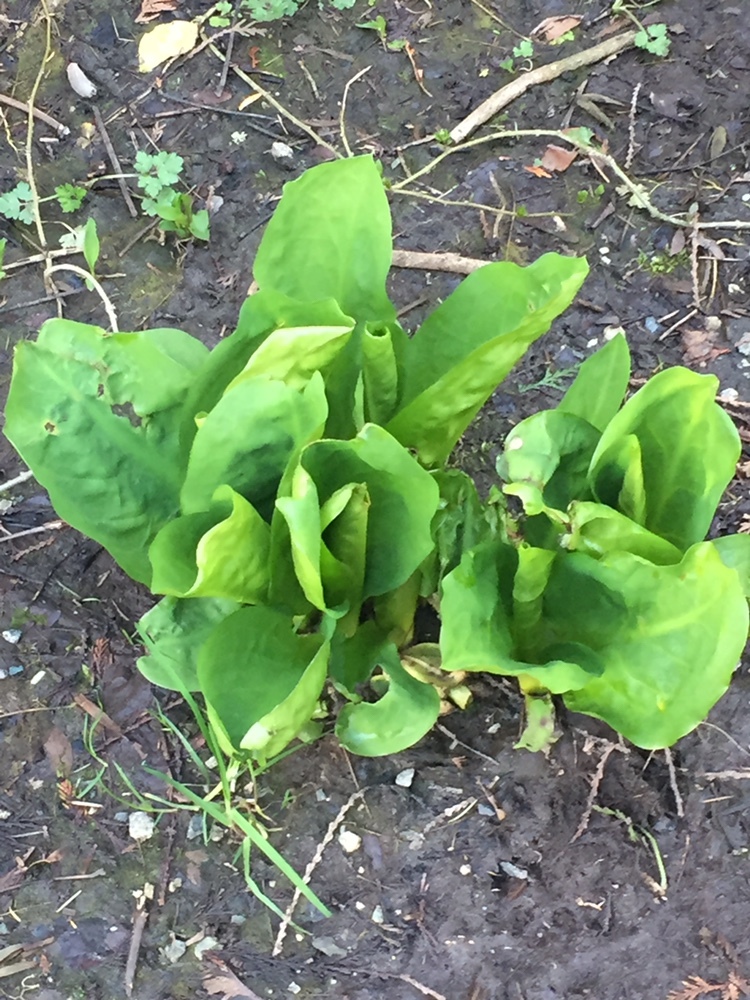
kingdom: Plantae
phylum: Tracheophyta
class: Liliopsida
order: Alismatales
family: Araceae
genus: Lysichiton
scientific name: Lysichiton americanus
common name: American skunk cabbage
